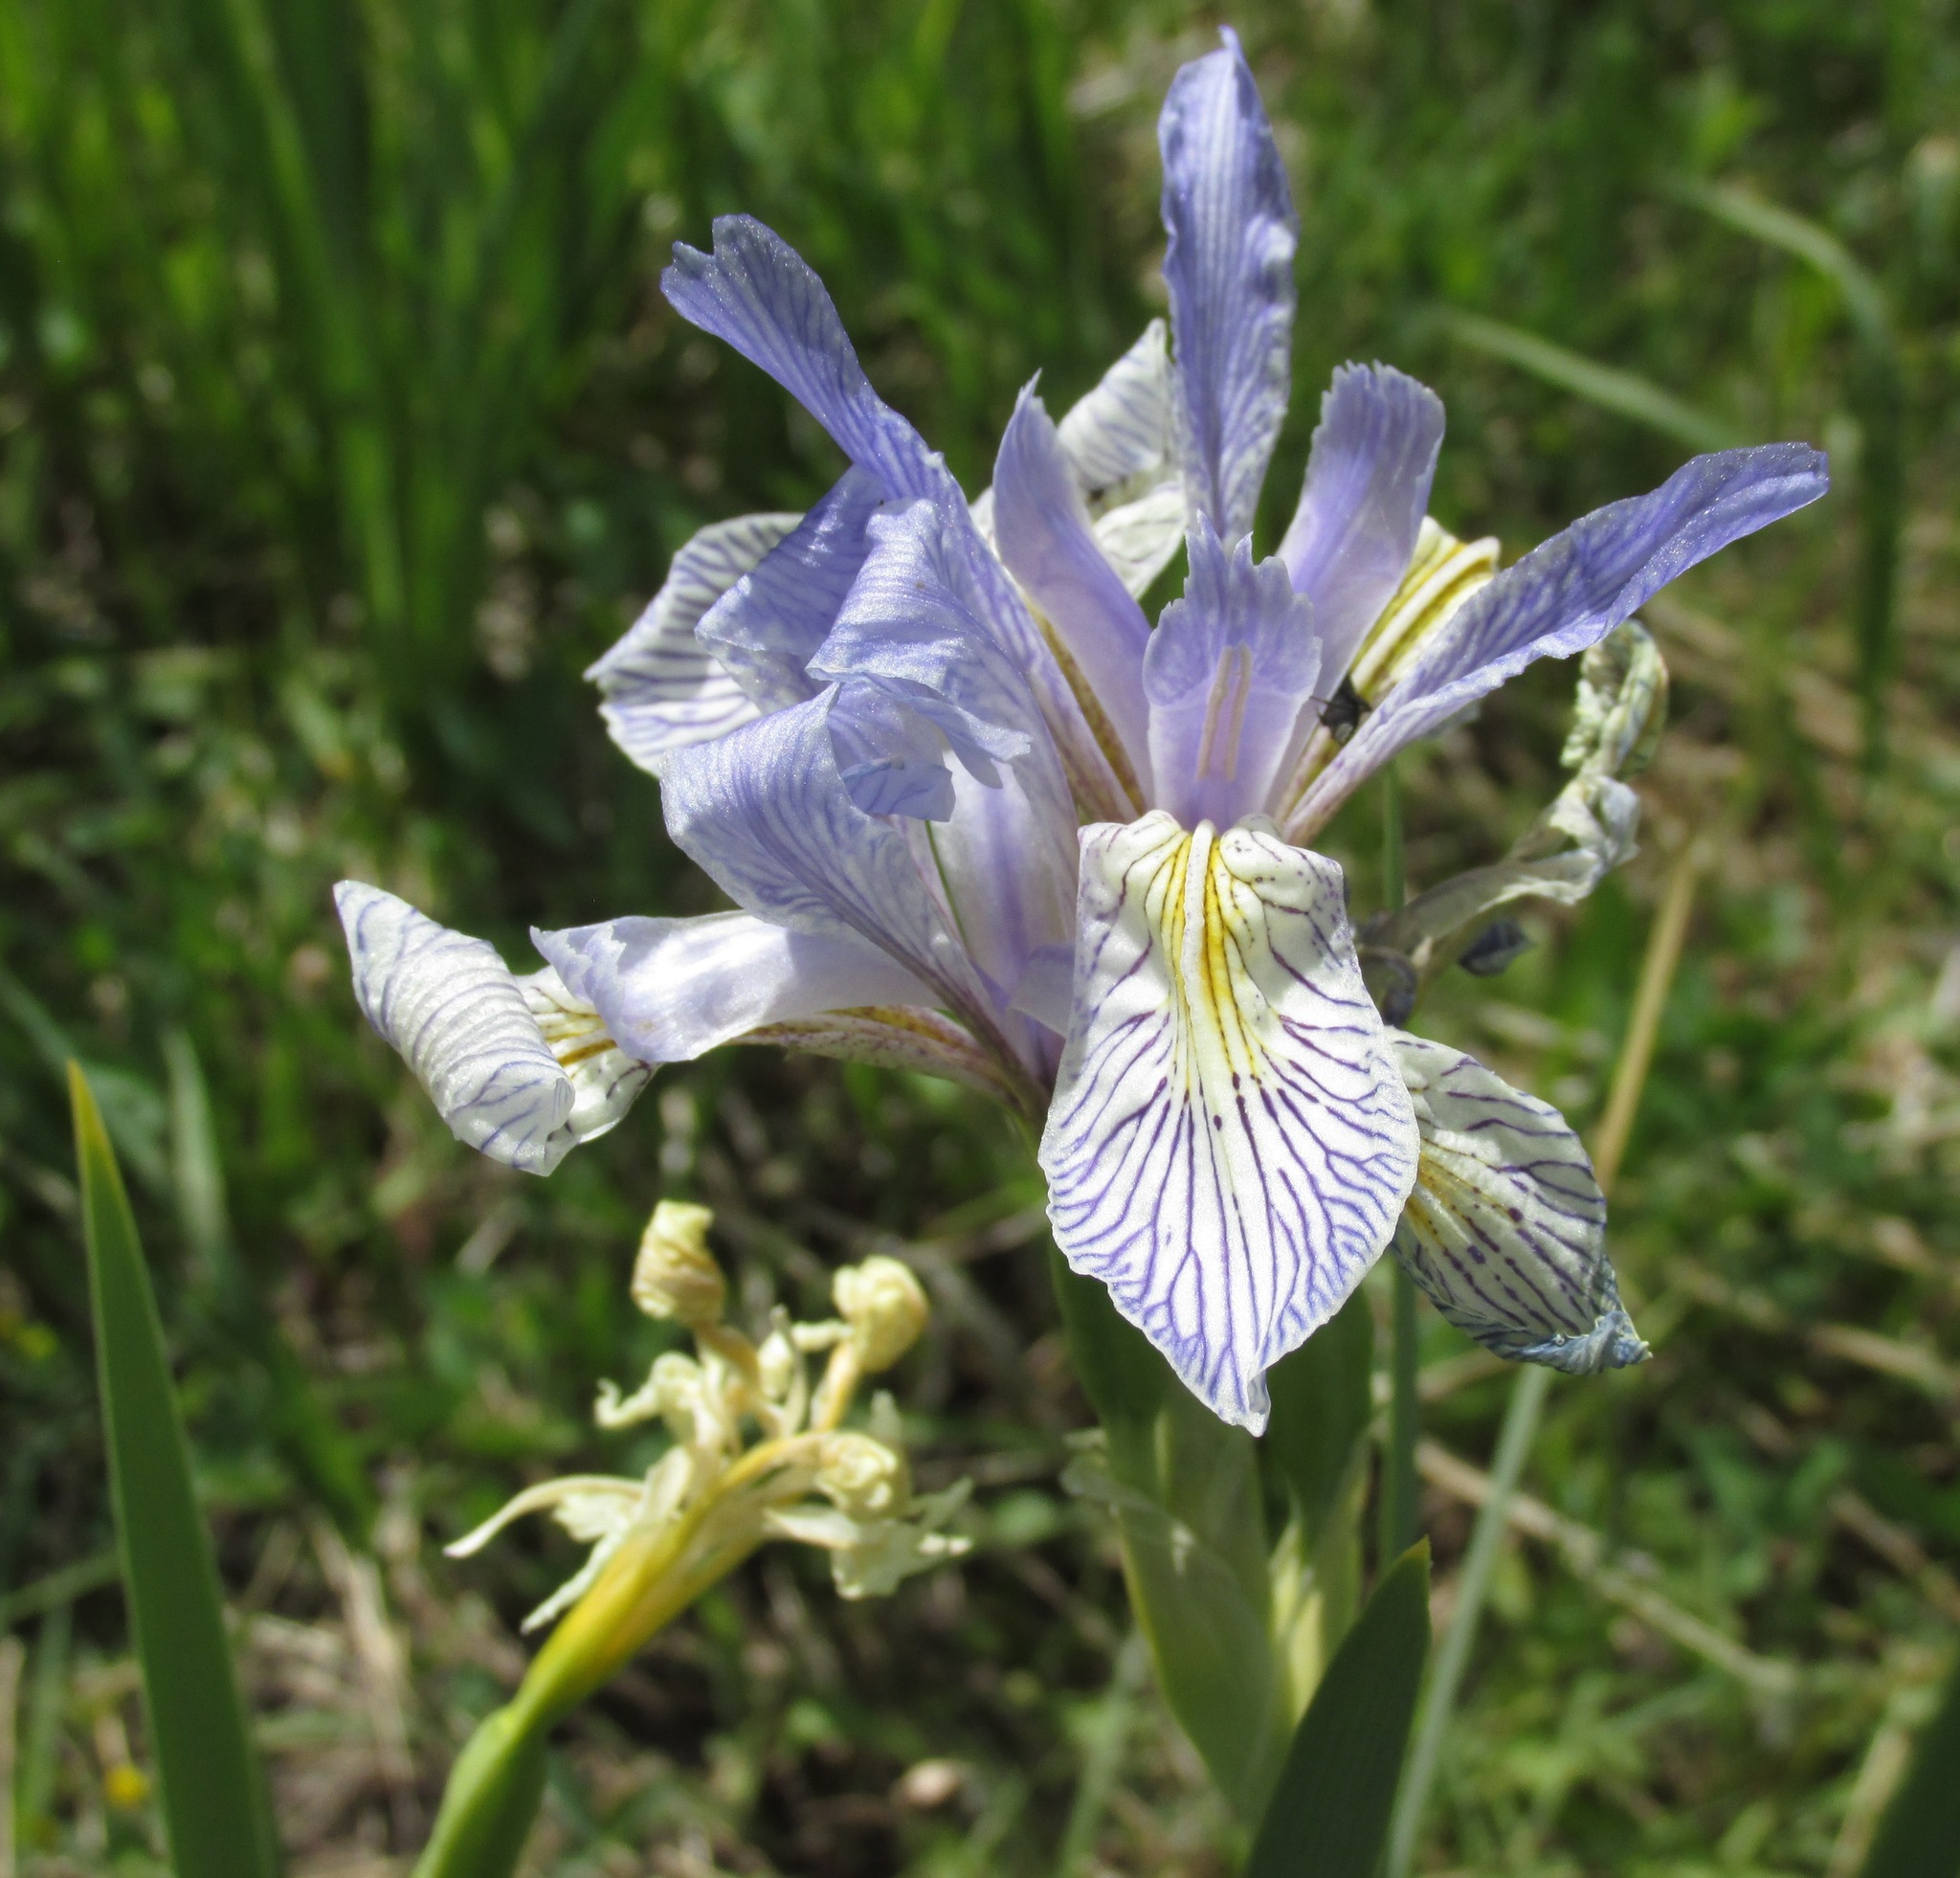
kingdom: Plantae
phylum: Tracheophyta
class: Liliopsida
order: Asparagales
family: Iridaceae
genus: Iris
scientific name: Iris missouriensis
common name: Rocky mountain iris
